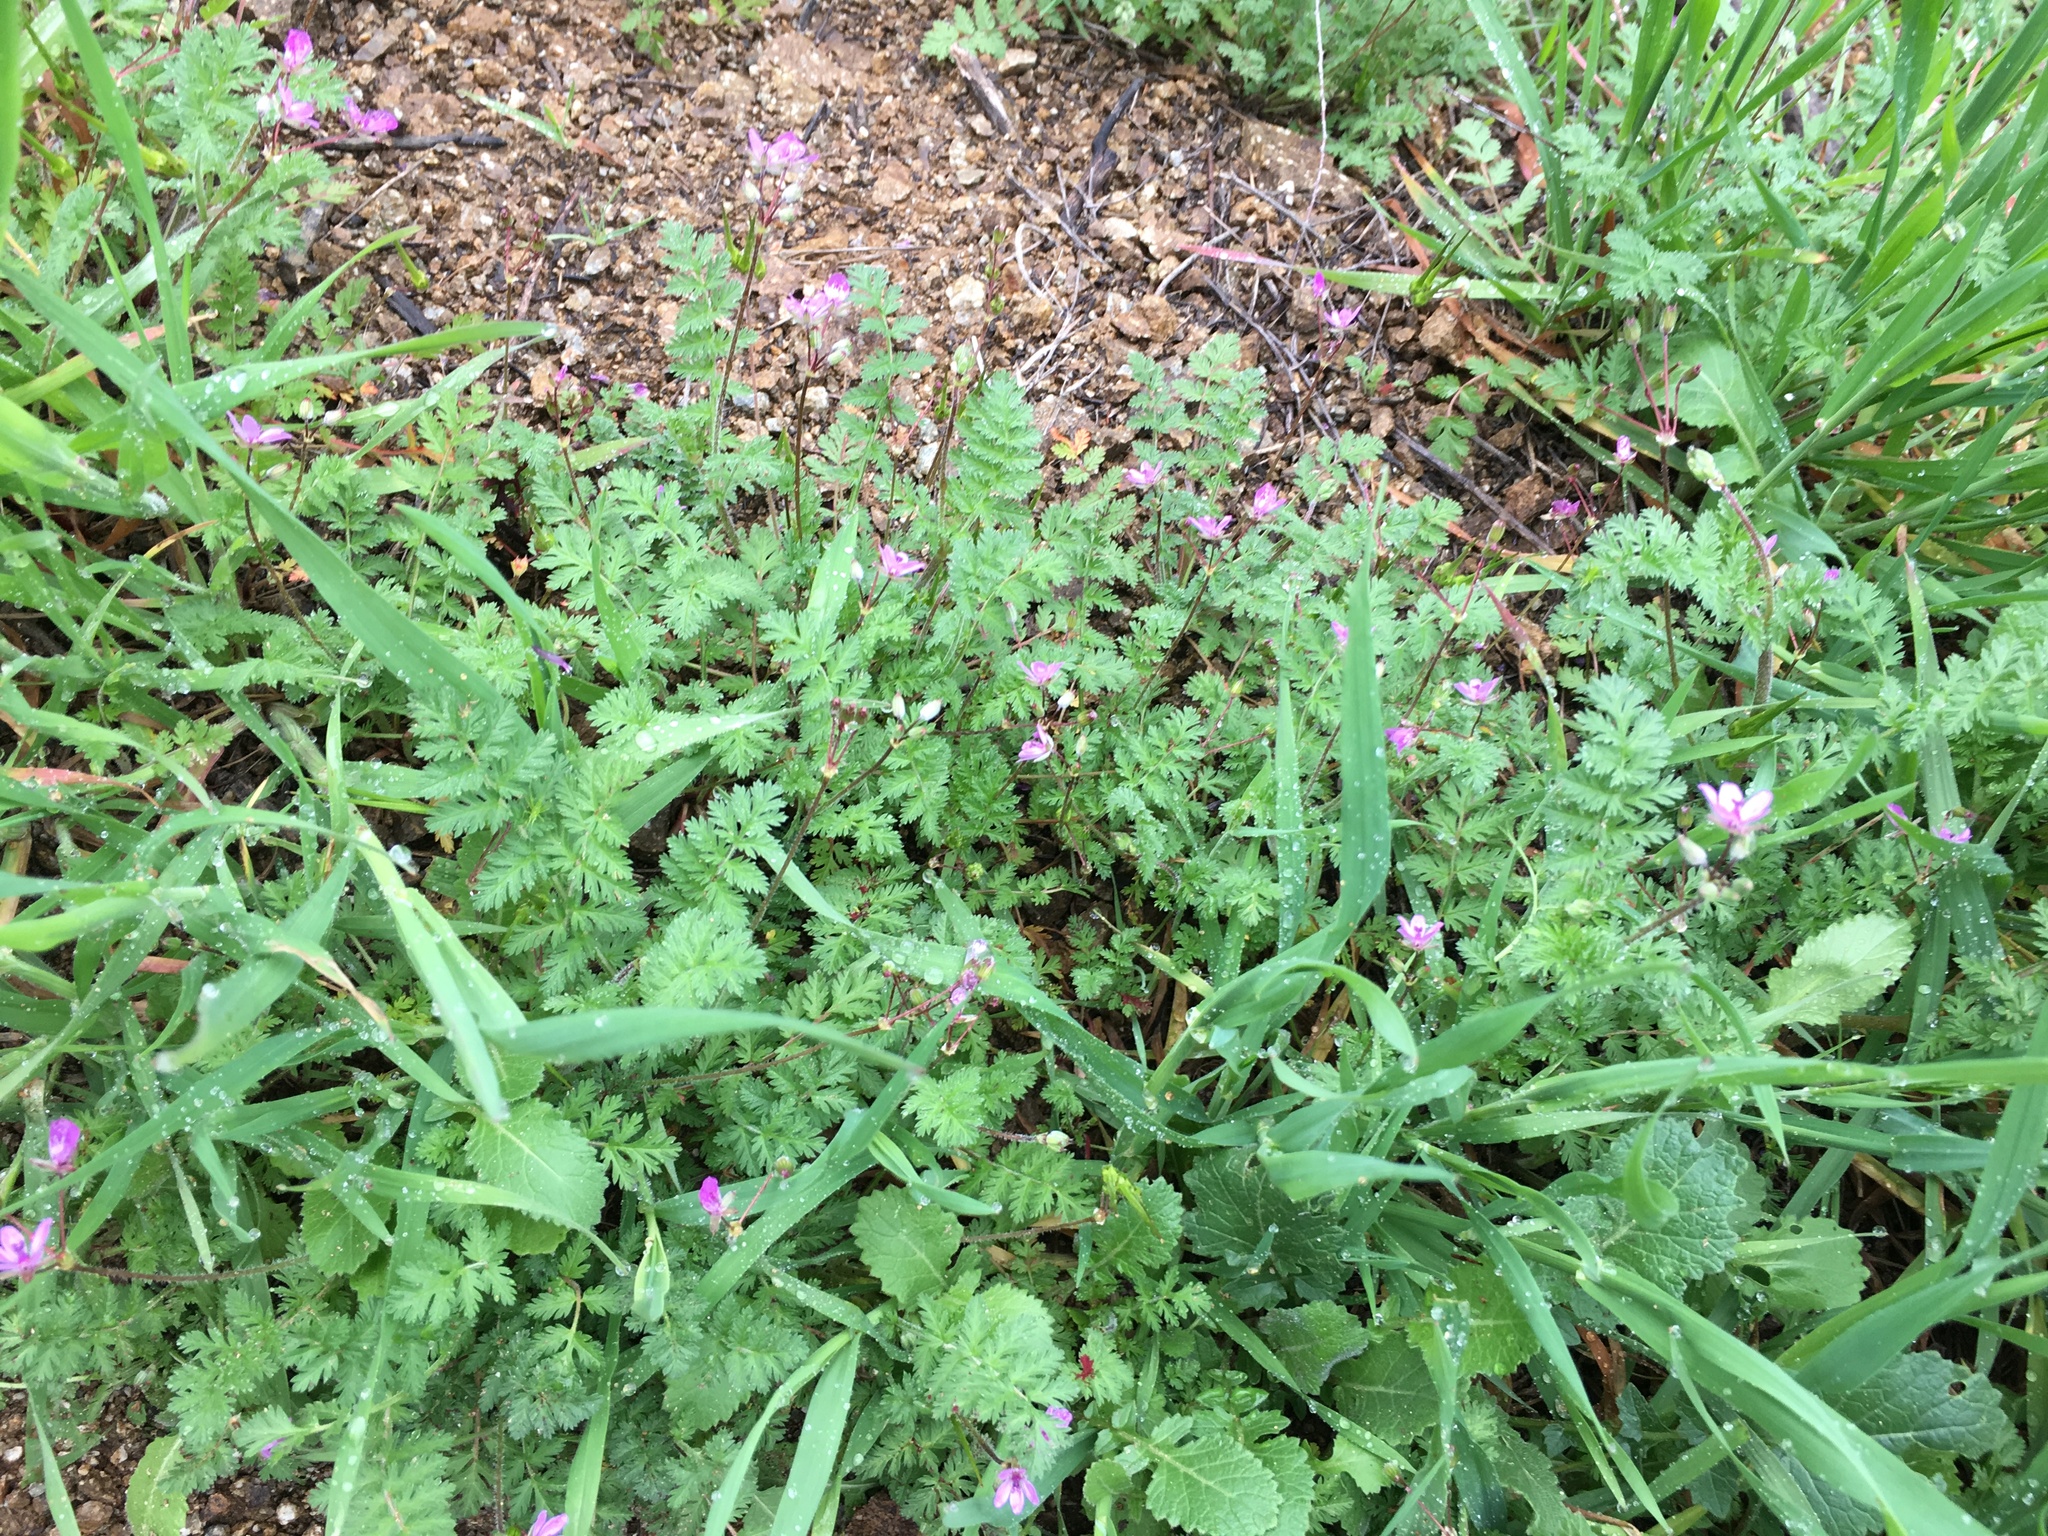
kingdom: Plantae
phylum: Tracheophyta
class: Magnoliopsida
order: Geraniales
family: Geraniaceae
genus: Erodium
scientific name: Erodium cicutarium
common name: Common stork's-bill
